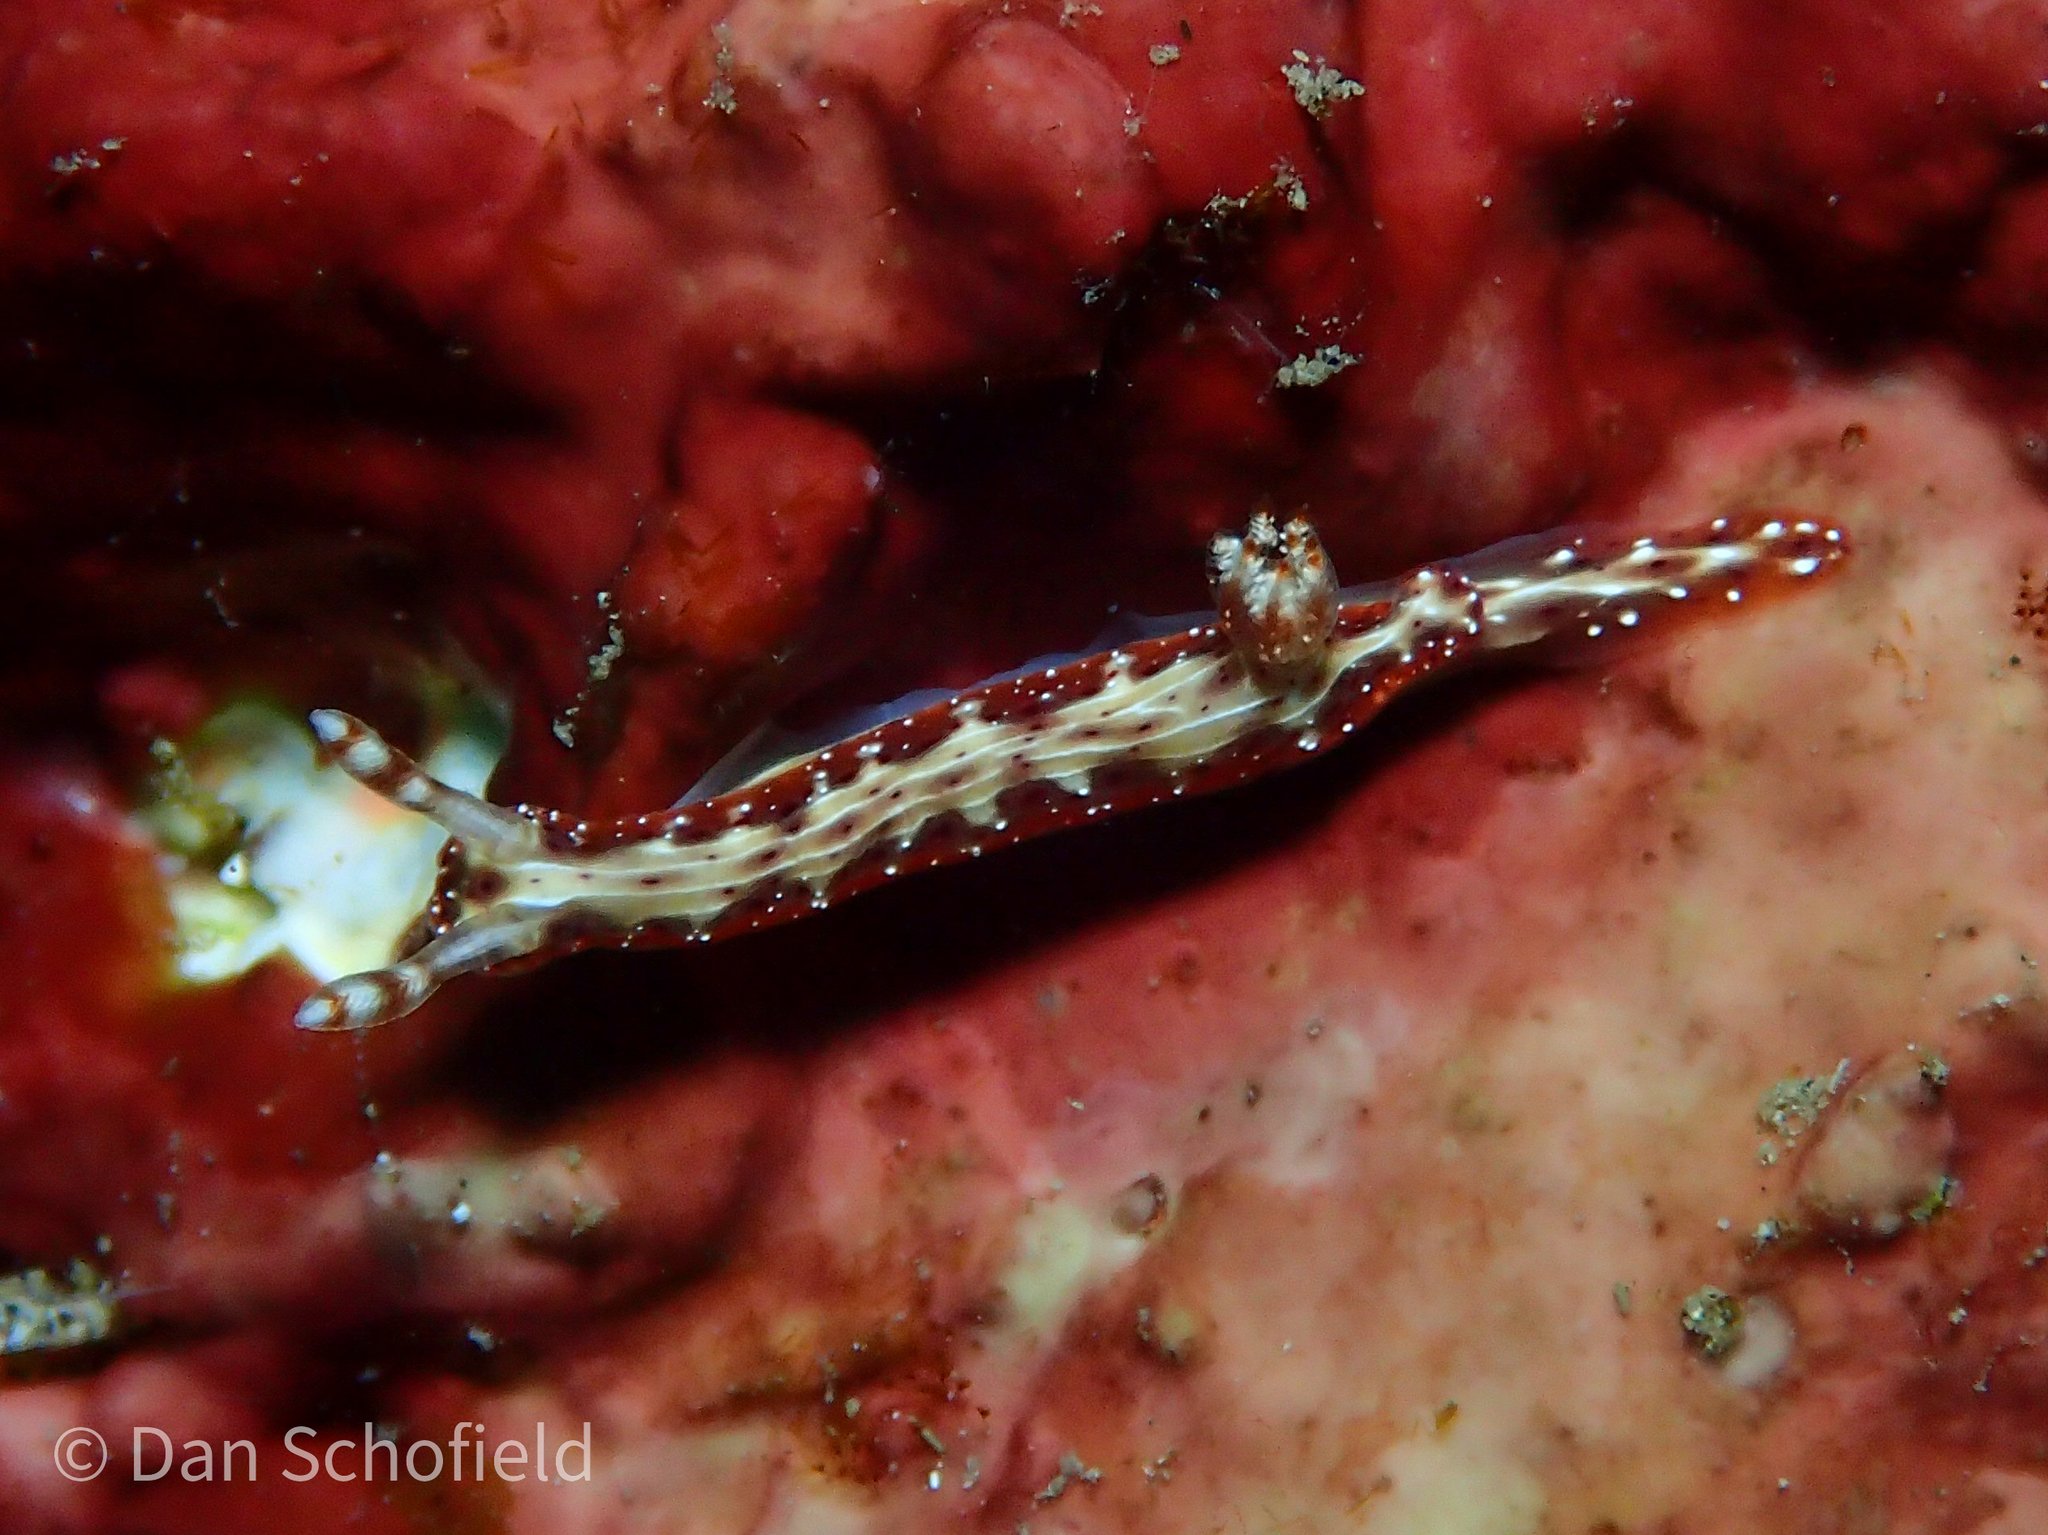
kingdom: Animalia
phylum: Mollusca
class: Gastropoda
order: Nudibranchia
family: Chromodorididae
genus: Hypselodoris
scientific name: Hypselodoris decorata
